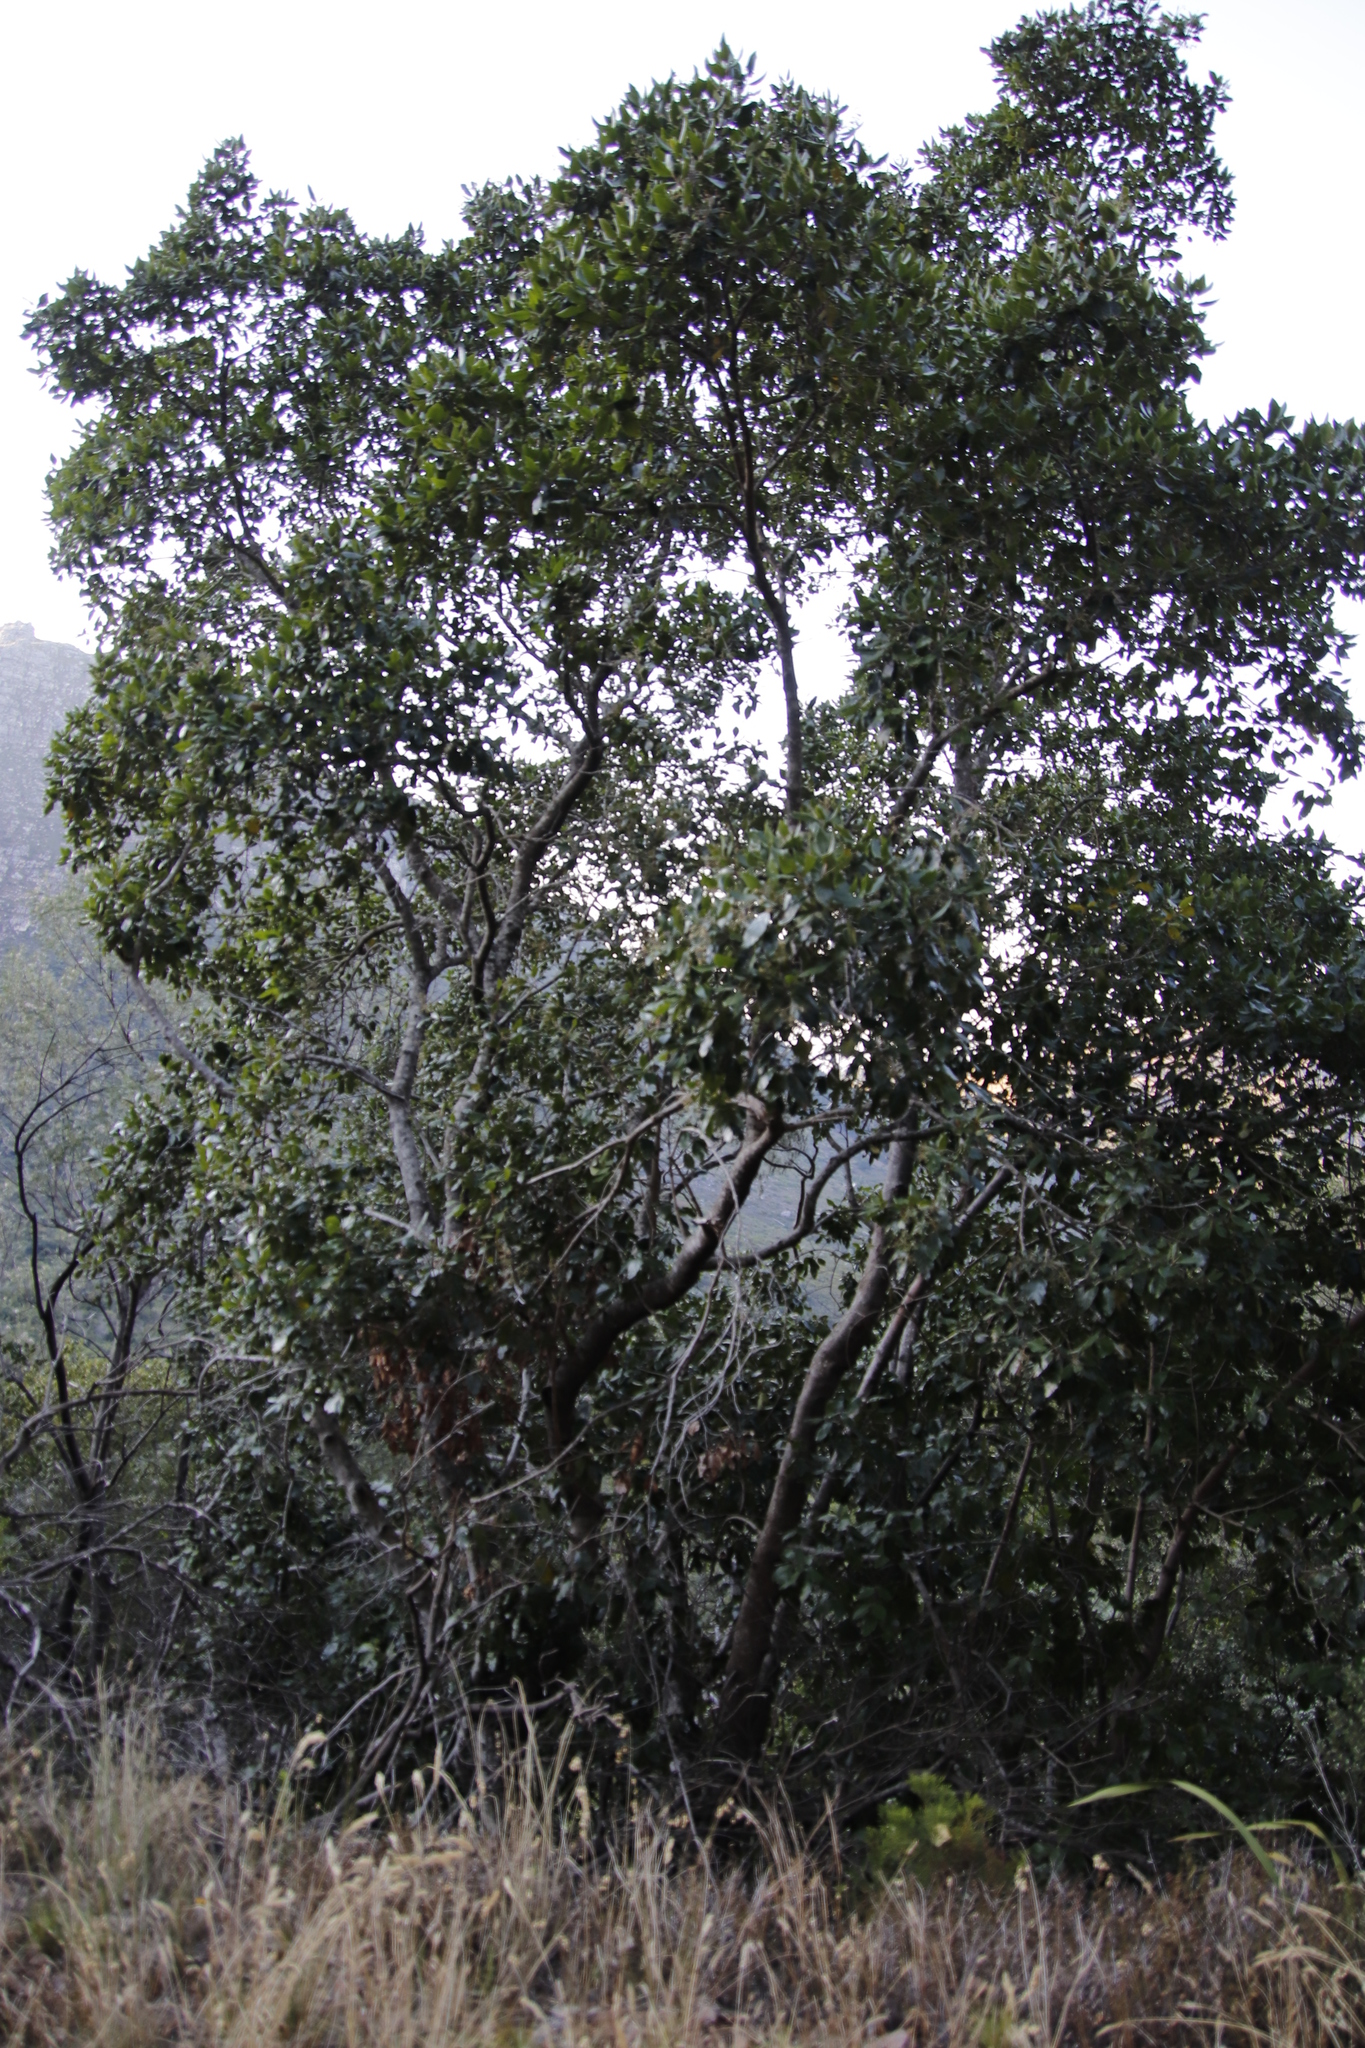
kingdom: Plantae
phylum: Tracheophyta
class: Magnoliopsida
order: Cornales
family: Curtisiaceae
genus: Curtisia
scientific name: Curtisia dentata
